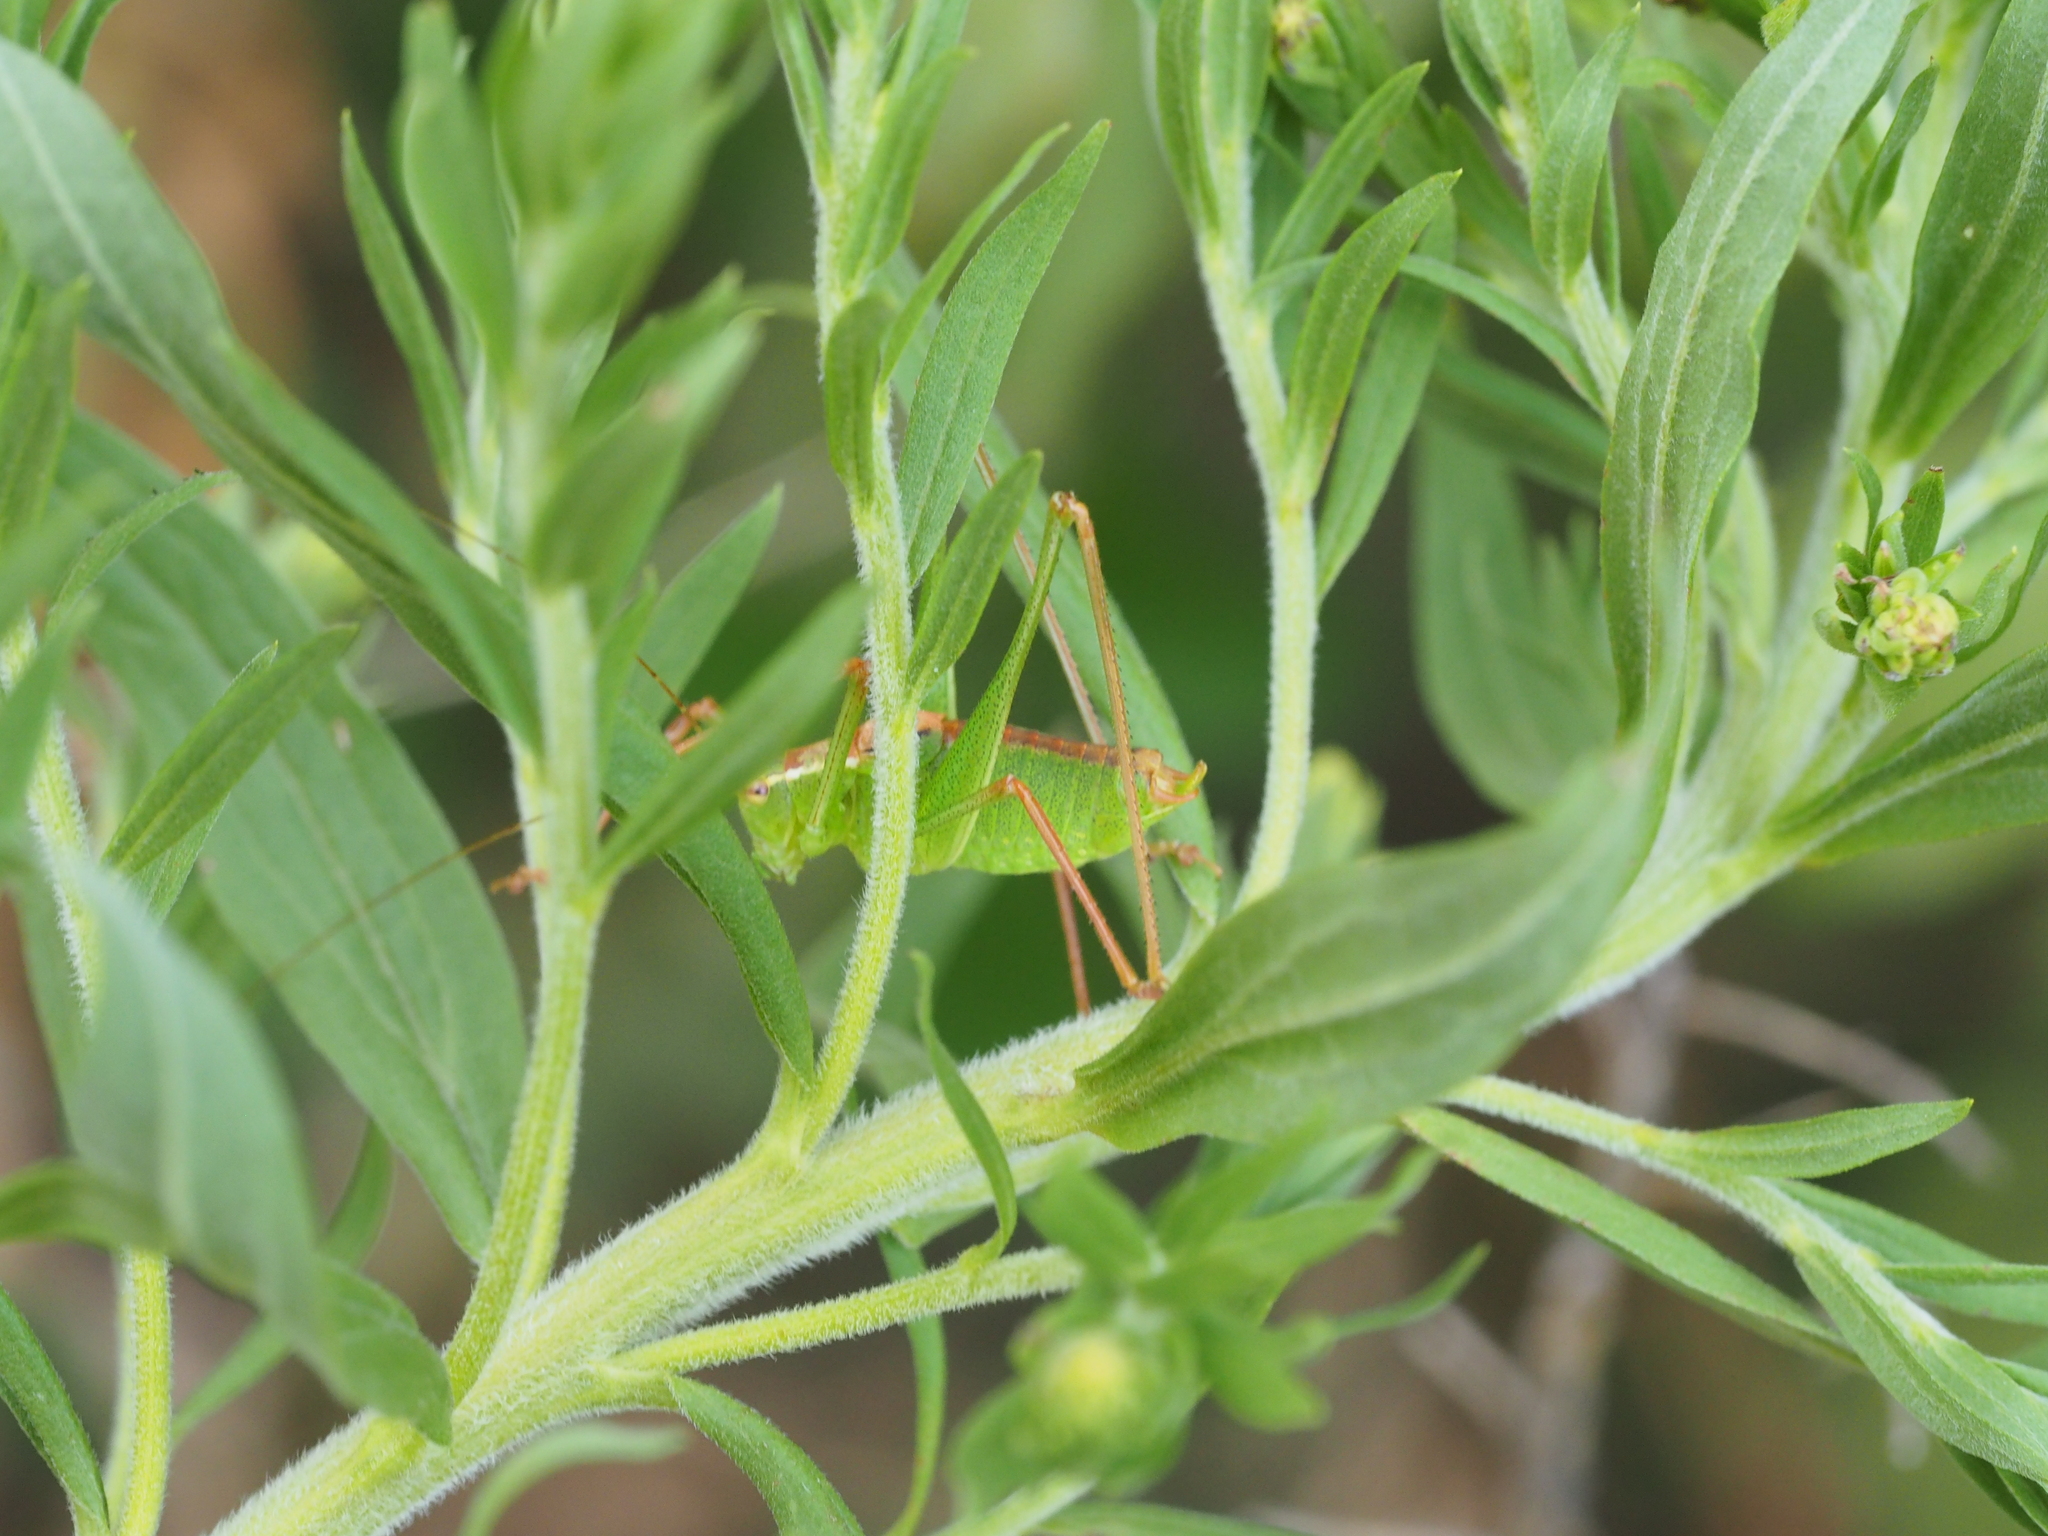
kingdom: Animalia
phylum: Arthropoda
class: Insecta
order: Orthoptera
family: Tettigoniidae
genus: Leptophyes
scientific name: Leptophyes punctatissima
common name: Speckled bush-cricket
